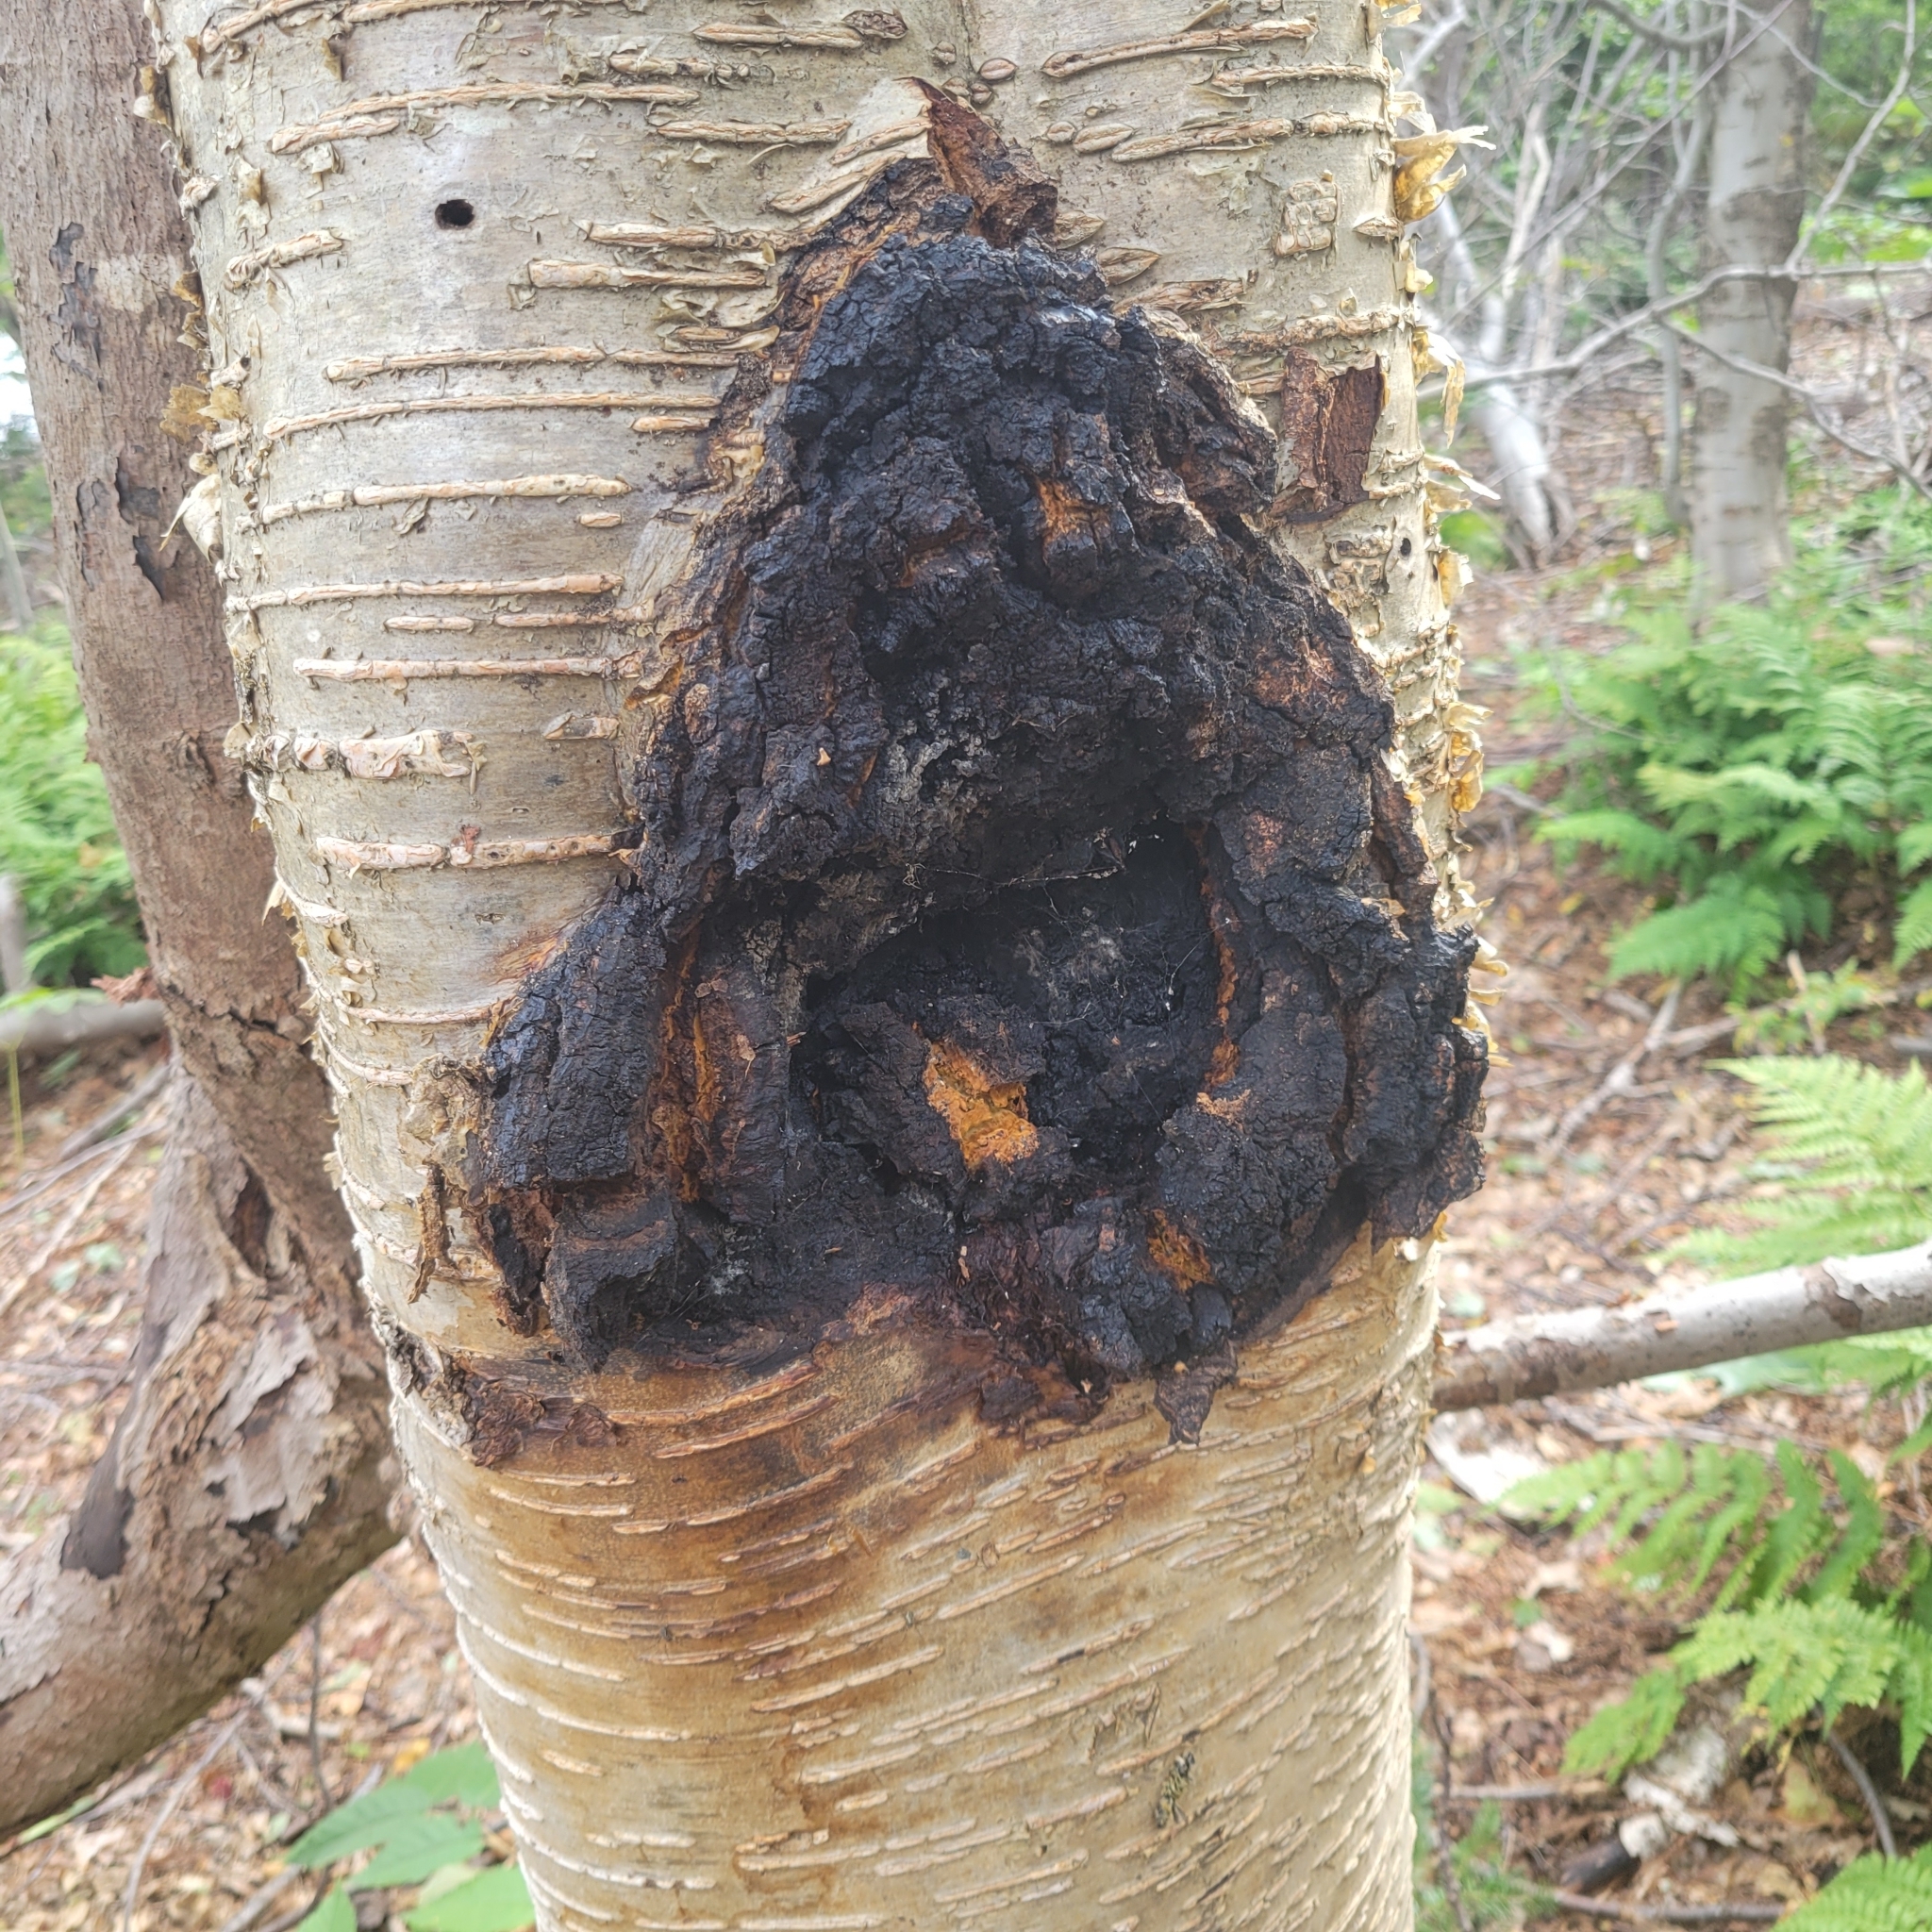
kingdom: Fungi
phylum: Basidiomycota
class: Agaricomycetes
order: Hymenochaetales
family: Hymenochaetaceae
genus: Inonotus
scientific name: Inonotus obliquus
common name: Chaga
